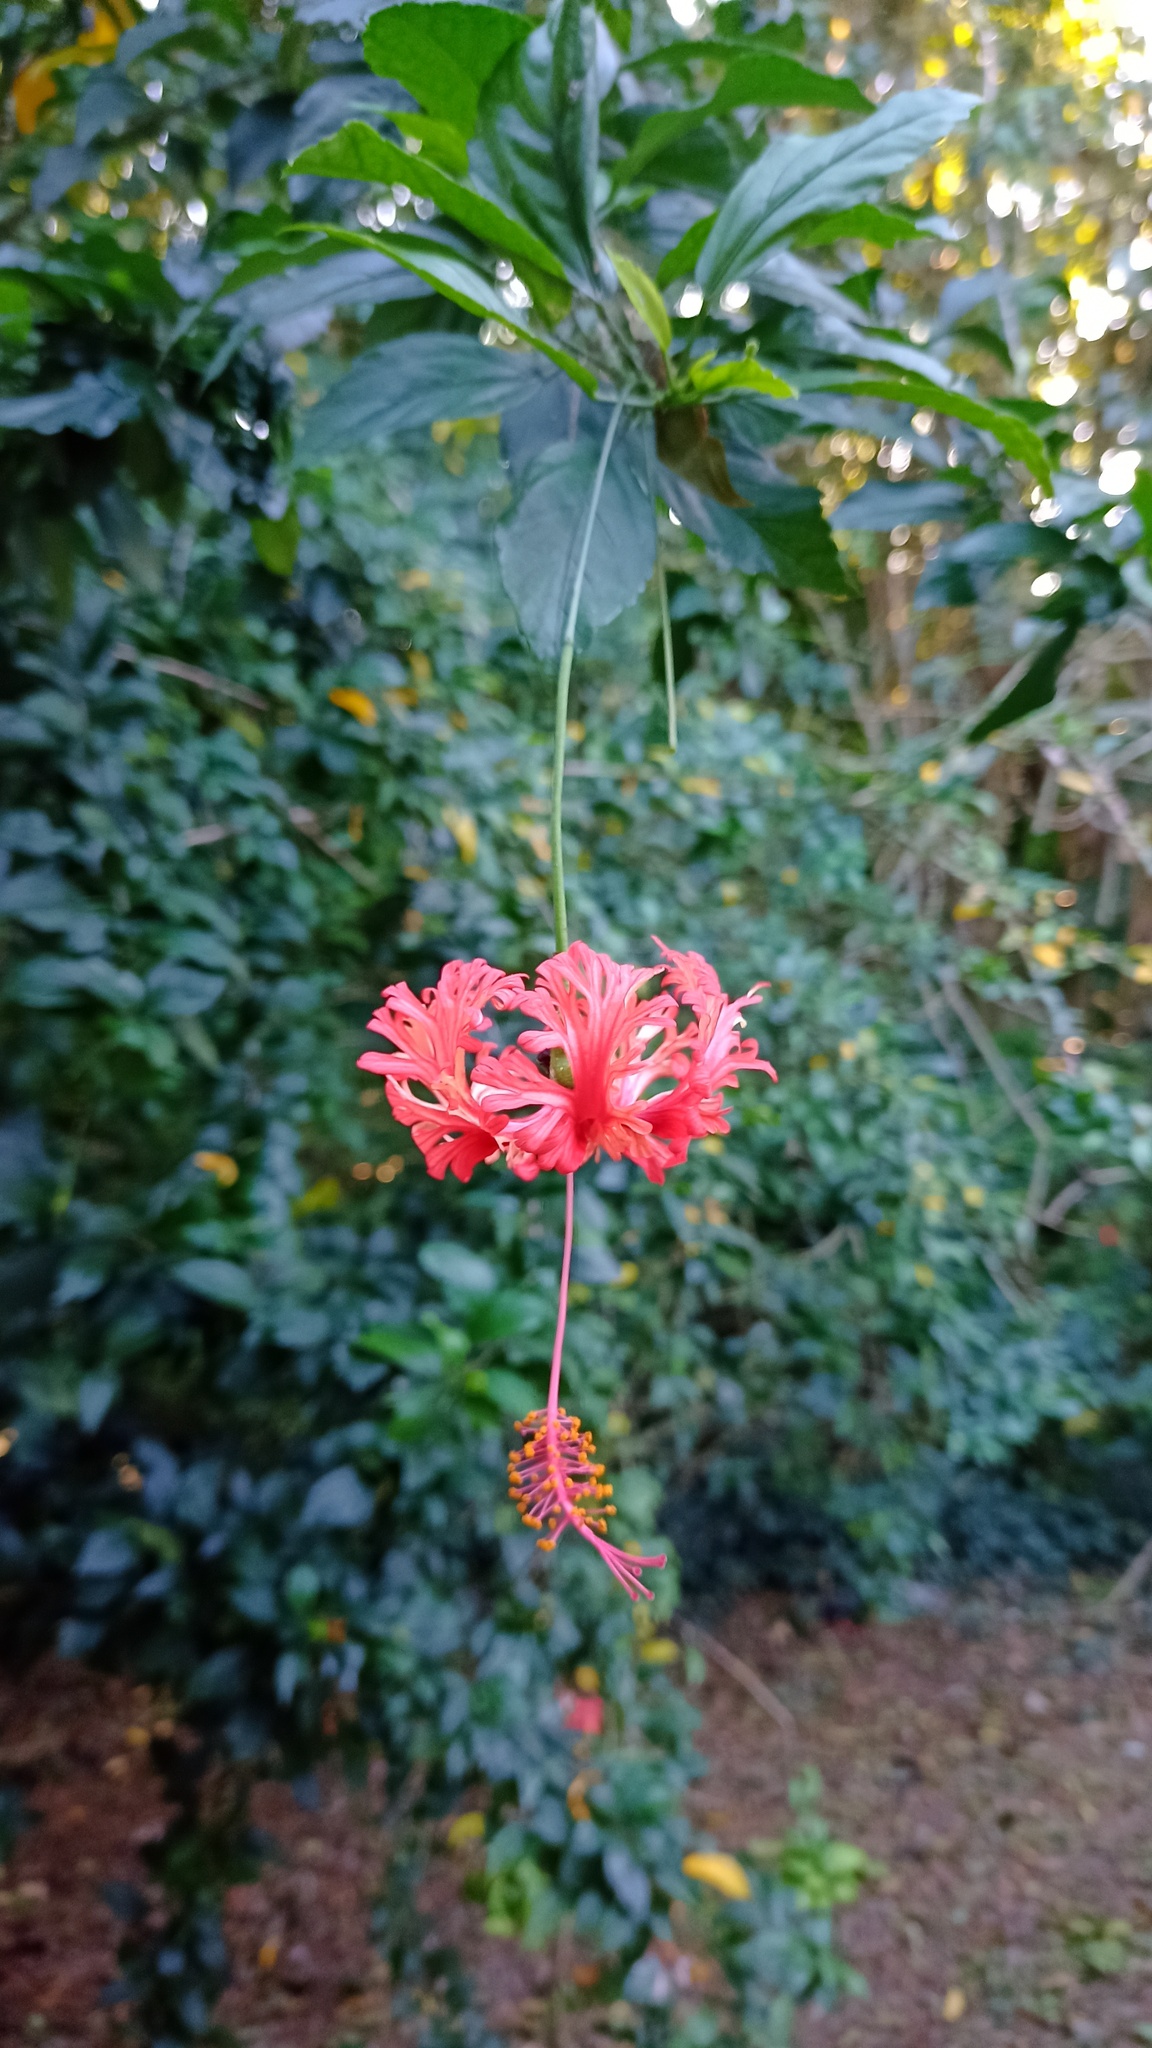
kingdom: Plantae
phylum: Tracheophyta
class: Magnoliopsida
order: Malvales
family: Malvaceae
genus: Hibiscus
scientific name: Hibiscus schizopetalus
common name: Fringed rosemallow
